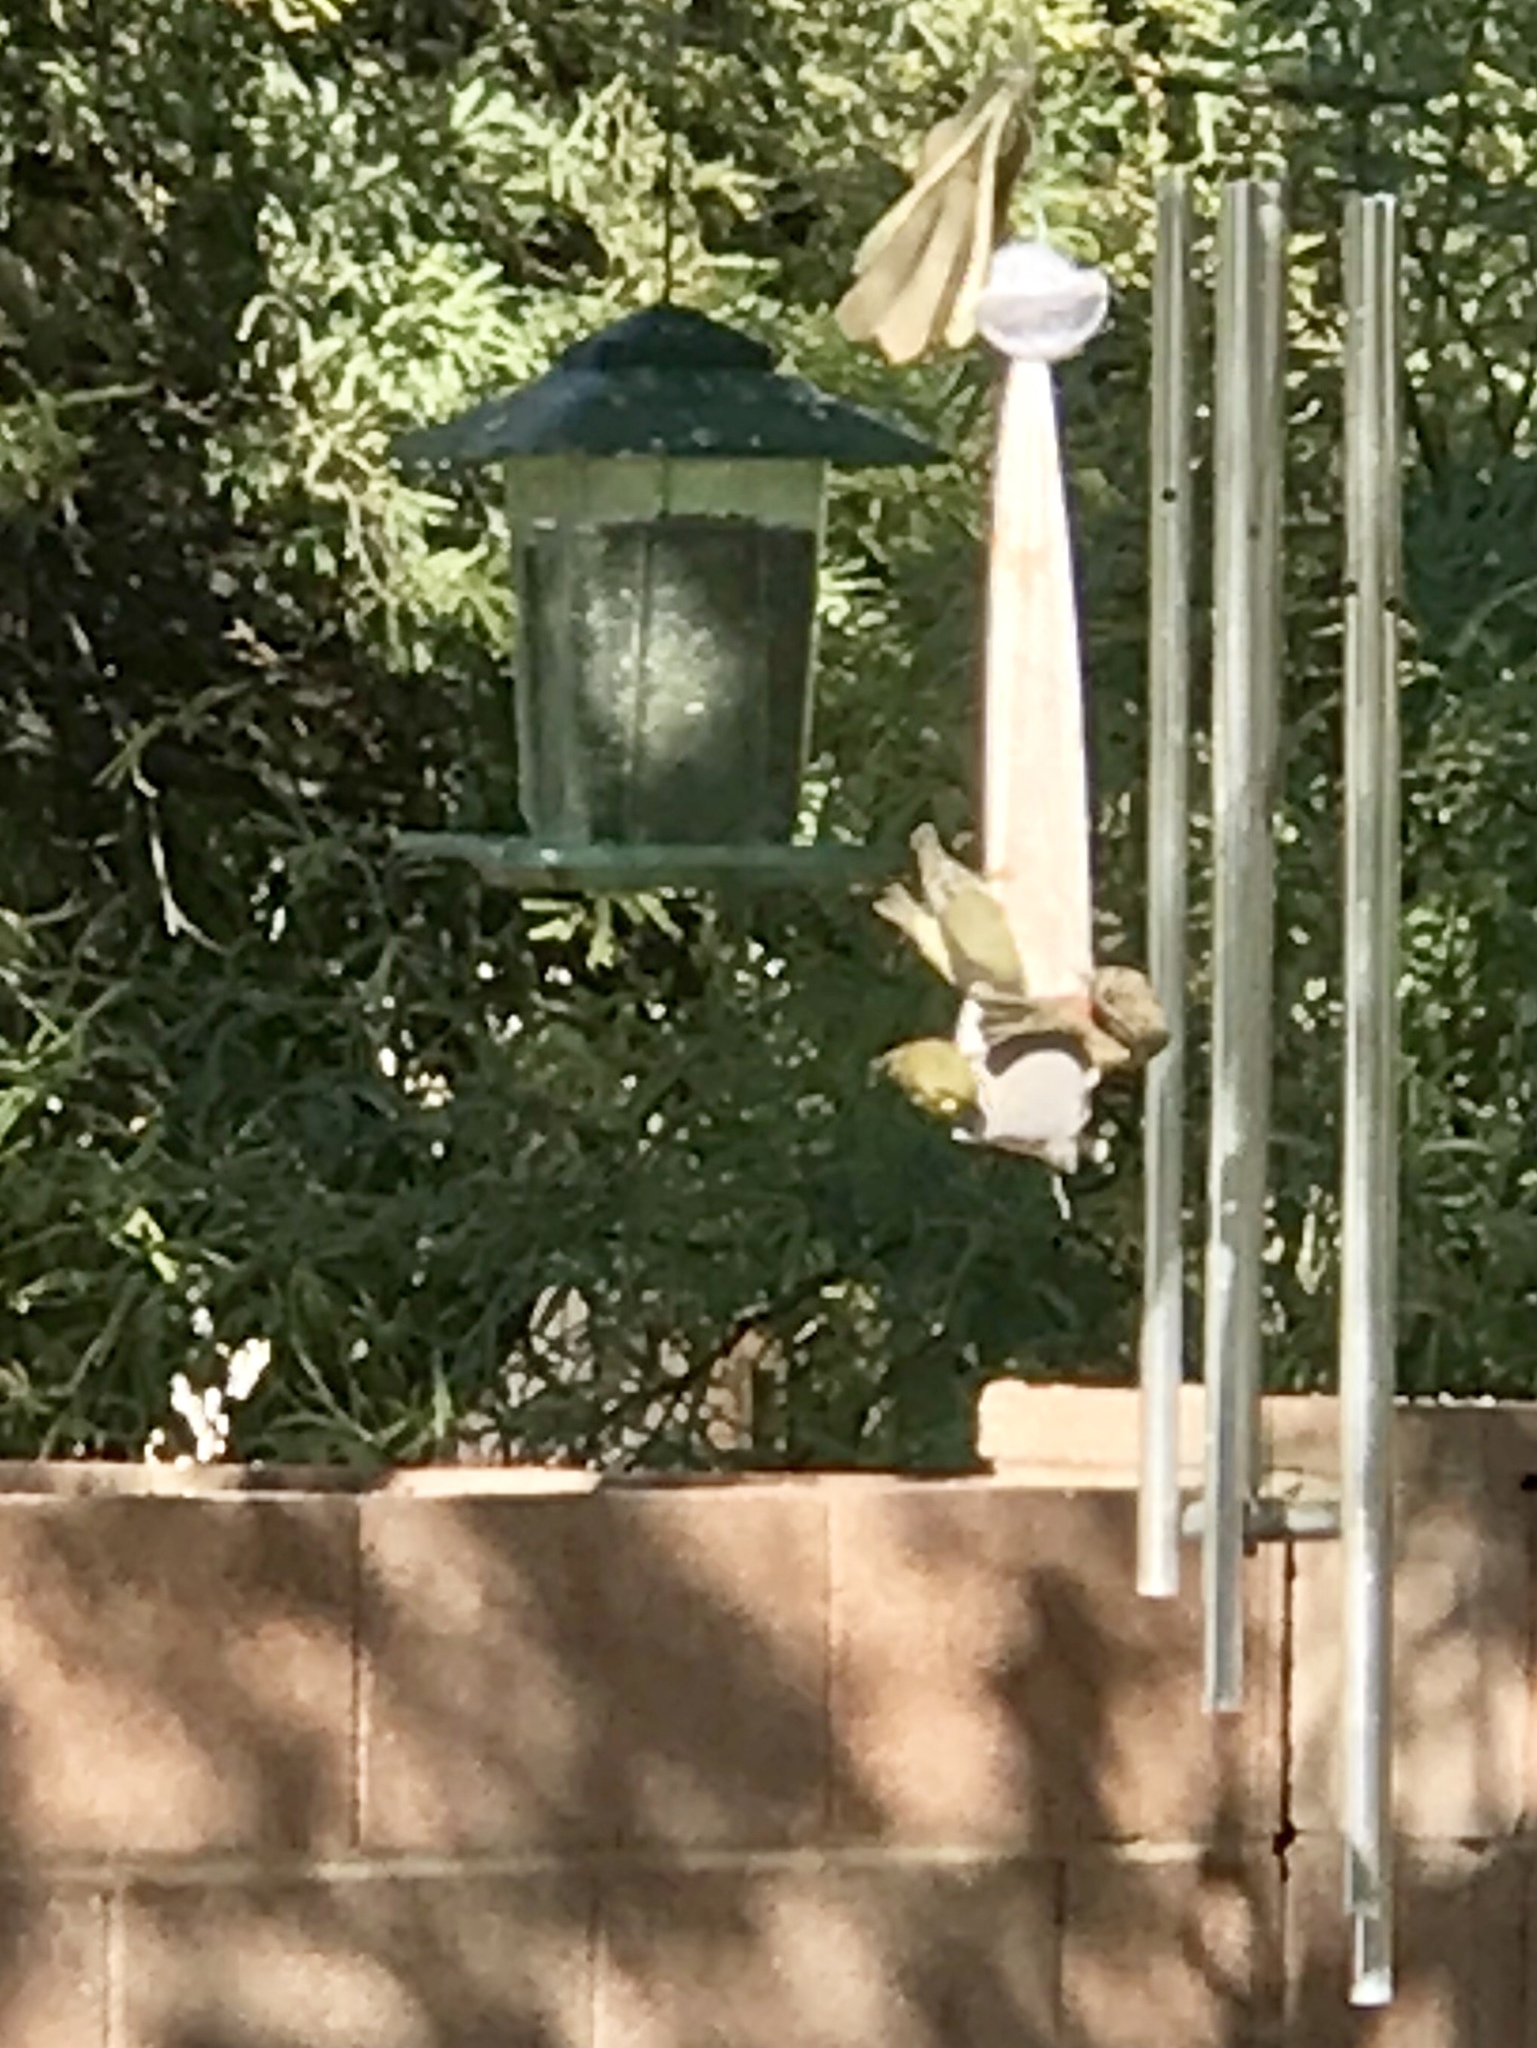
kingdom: Animalia
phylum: Chordata
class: Aves
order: Passeriformes
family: Fringillidae
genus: Spinus
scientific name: Spinus psaltria
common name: Lesser goldfinch
